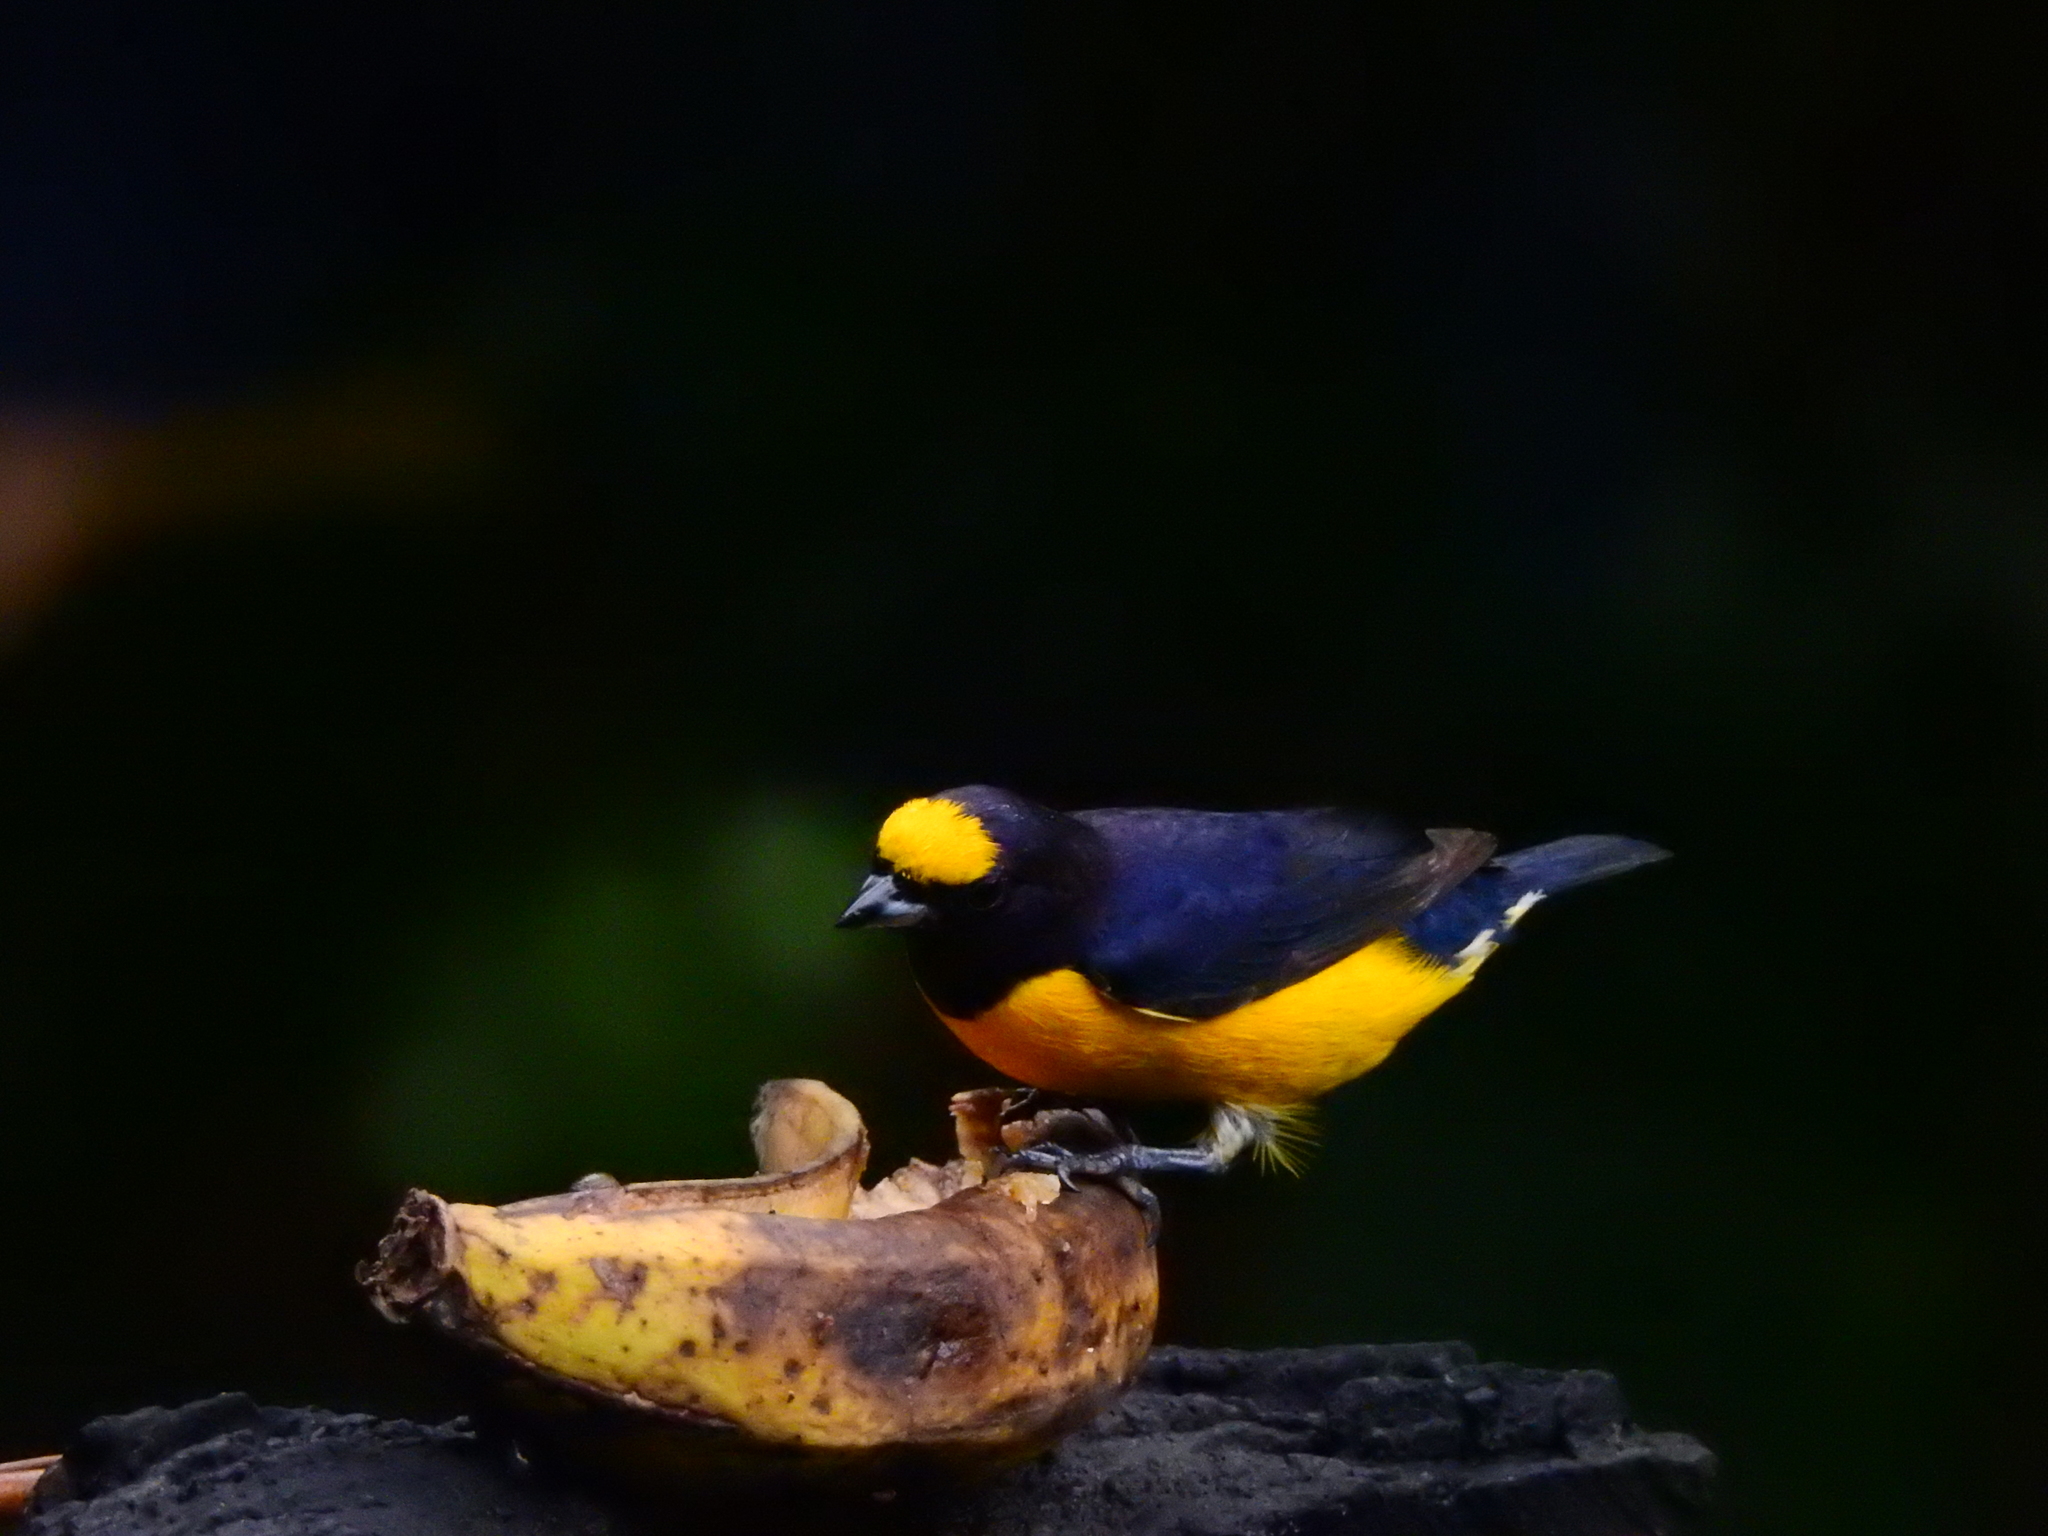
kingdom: Animalia
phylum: Chordata
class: Aves
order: Passeriformes
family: Fringillidae
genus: Euphonia
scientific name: Euphonia chlorotica
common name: Purple-throated euphonia
